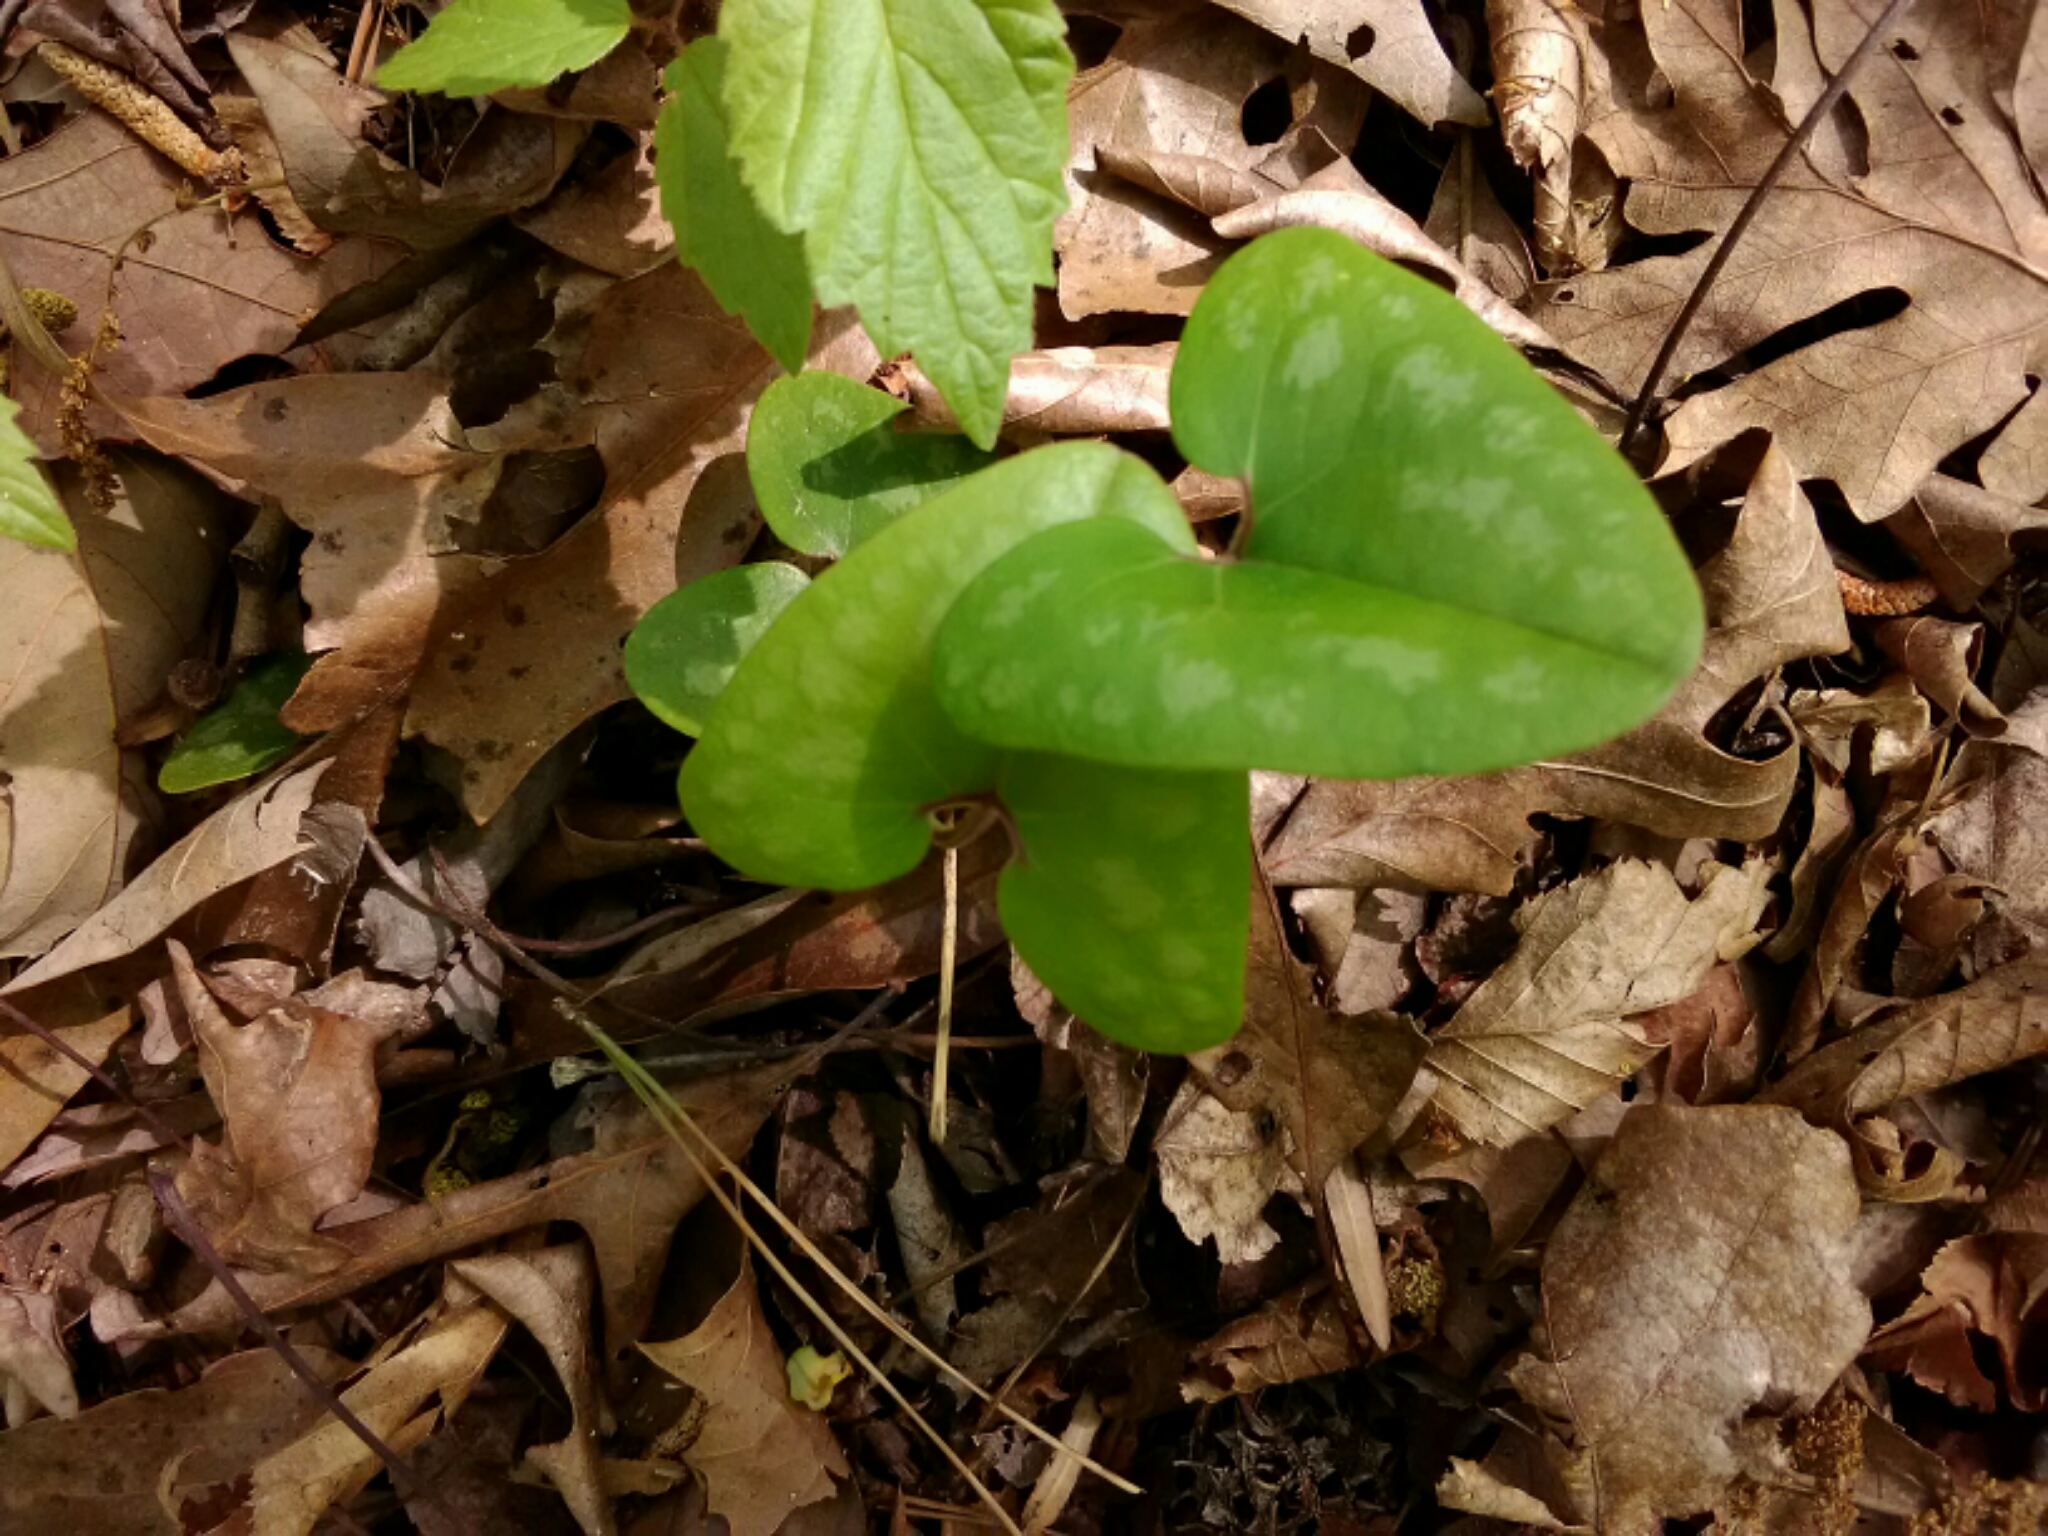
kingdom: Plantae
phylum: Tracheophyta
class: Magnoliopsida
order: Piperales
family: Aristolochiaceae
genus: Hexastylis
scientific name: Hexastylis arifolia
